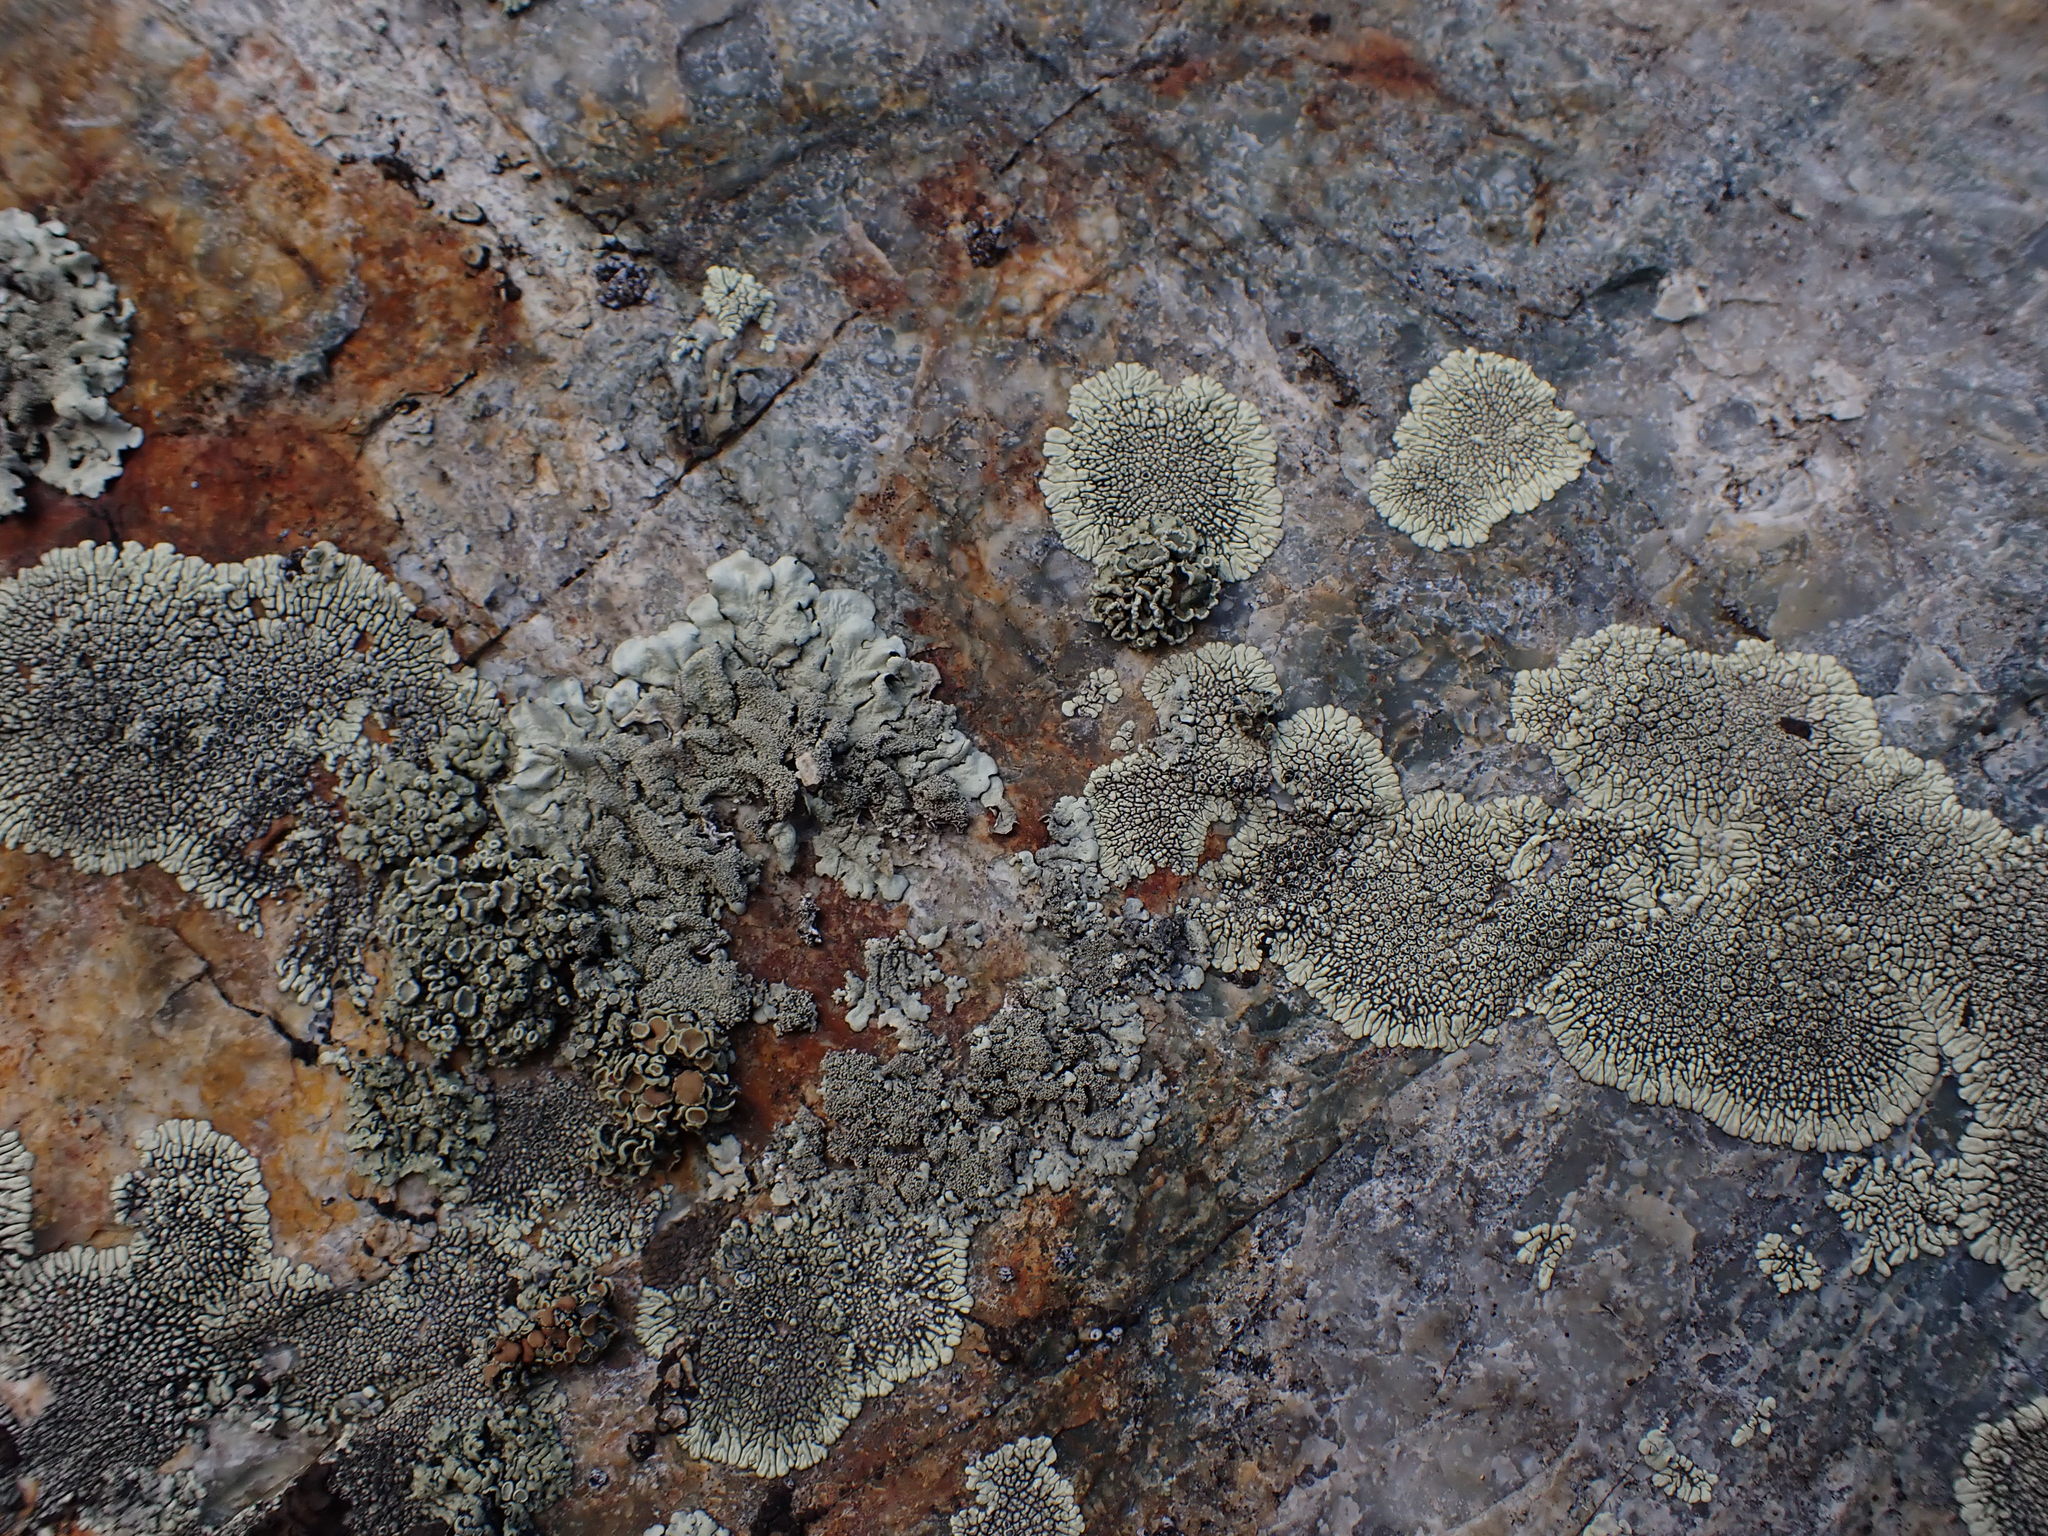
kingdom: Fungi
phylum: Ascomycota
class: Lecanoromycetes
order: Caliciales
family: Caliciaceae
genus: Dimelaena
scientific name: Dimelaena oreina
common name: Golden moonglow lichen
